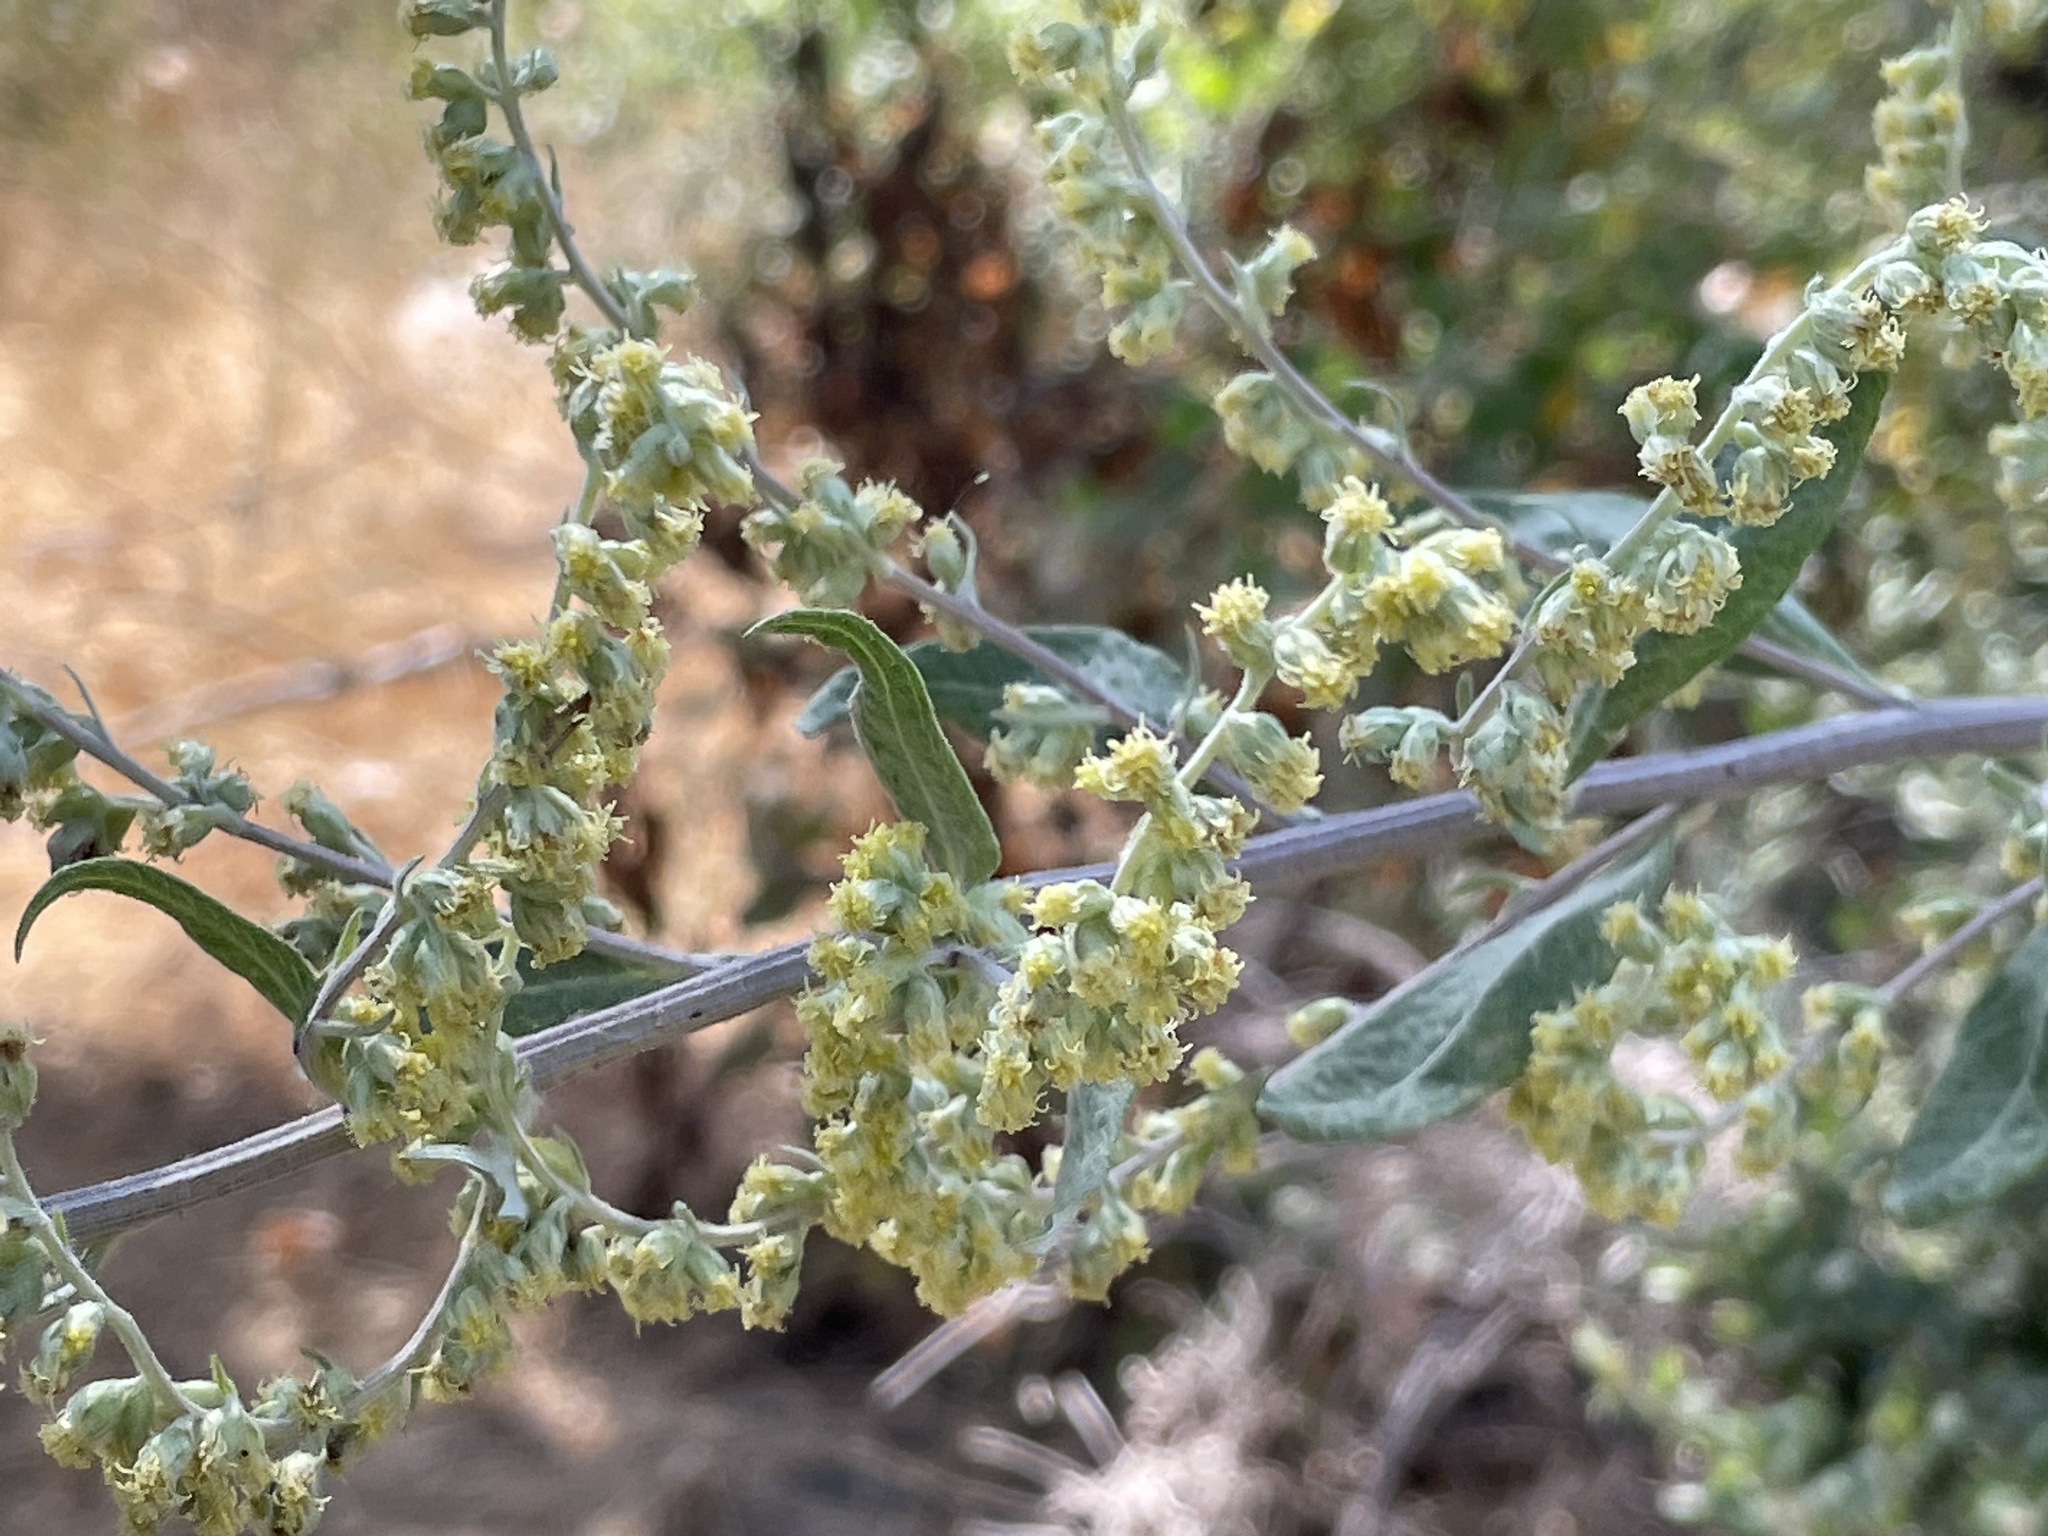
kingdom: Plantae
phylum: Tracheophyta
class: Magnoliopsida
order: Asterales
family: Asteraceae
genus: Artemisia
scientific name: Artemisia douglasiana
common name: Northwest mugwort
